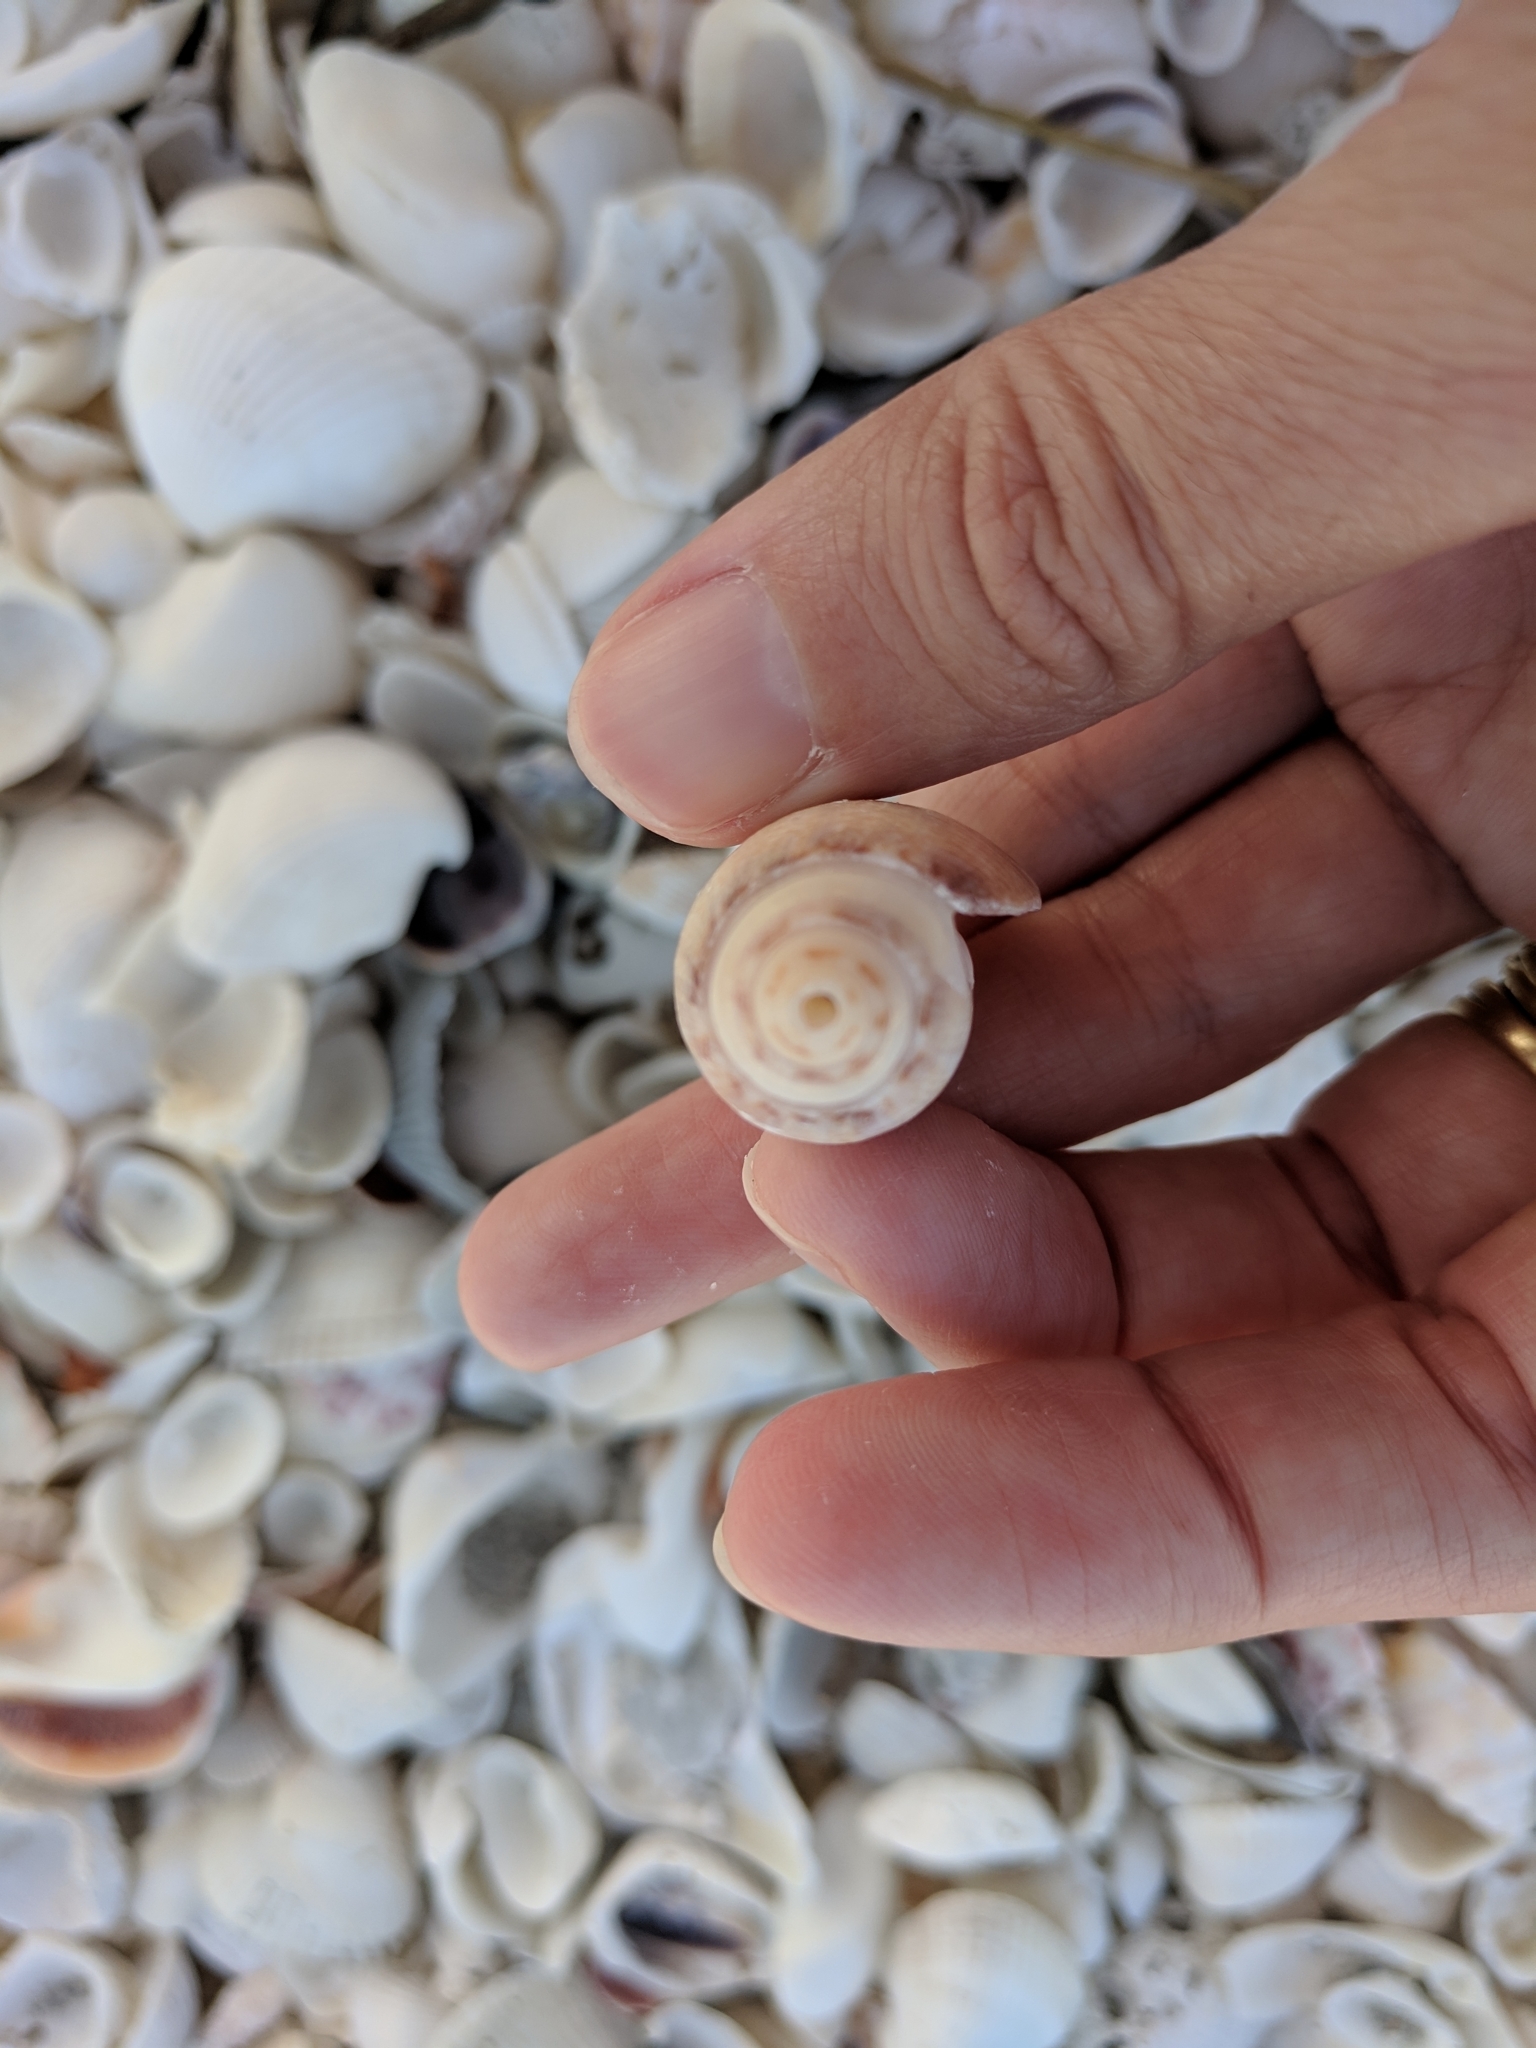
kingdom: Animalia
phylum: Mollusca
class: Gastropoda
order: Neogastropoda
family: Olividae
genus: Oliva
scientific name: Oliva sayana
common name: Lettered olive
